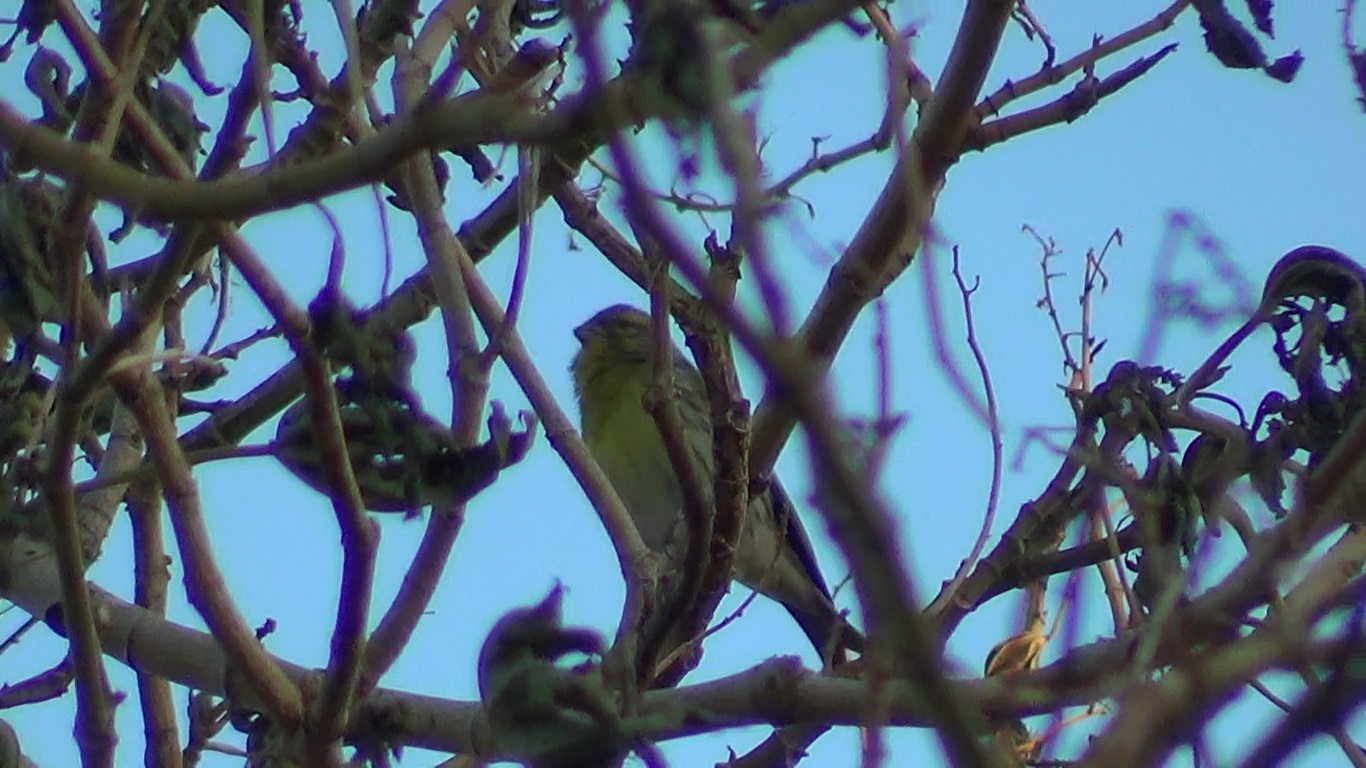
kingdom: Animalia
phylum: Chordata
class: Aves
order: Passeriformes
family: Fringillidae
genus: Serinus
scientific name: Serinus serinus
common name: European serin
